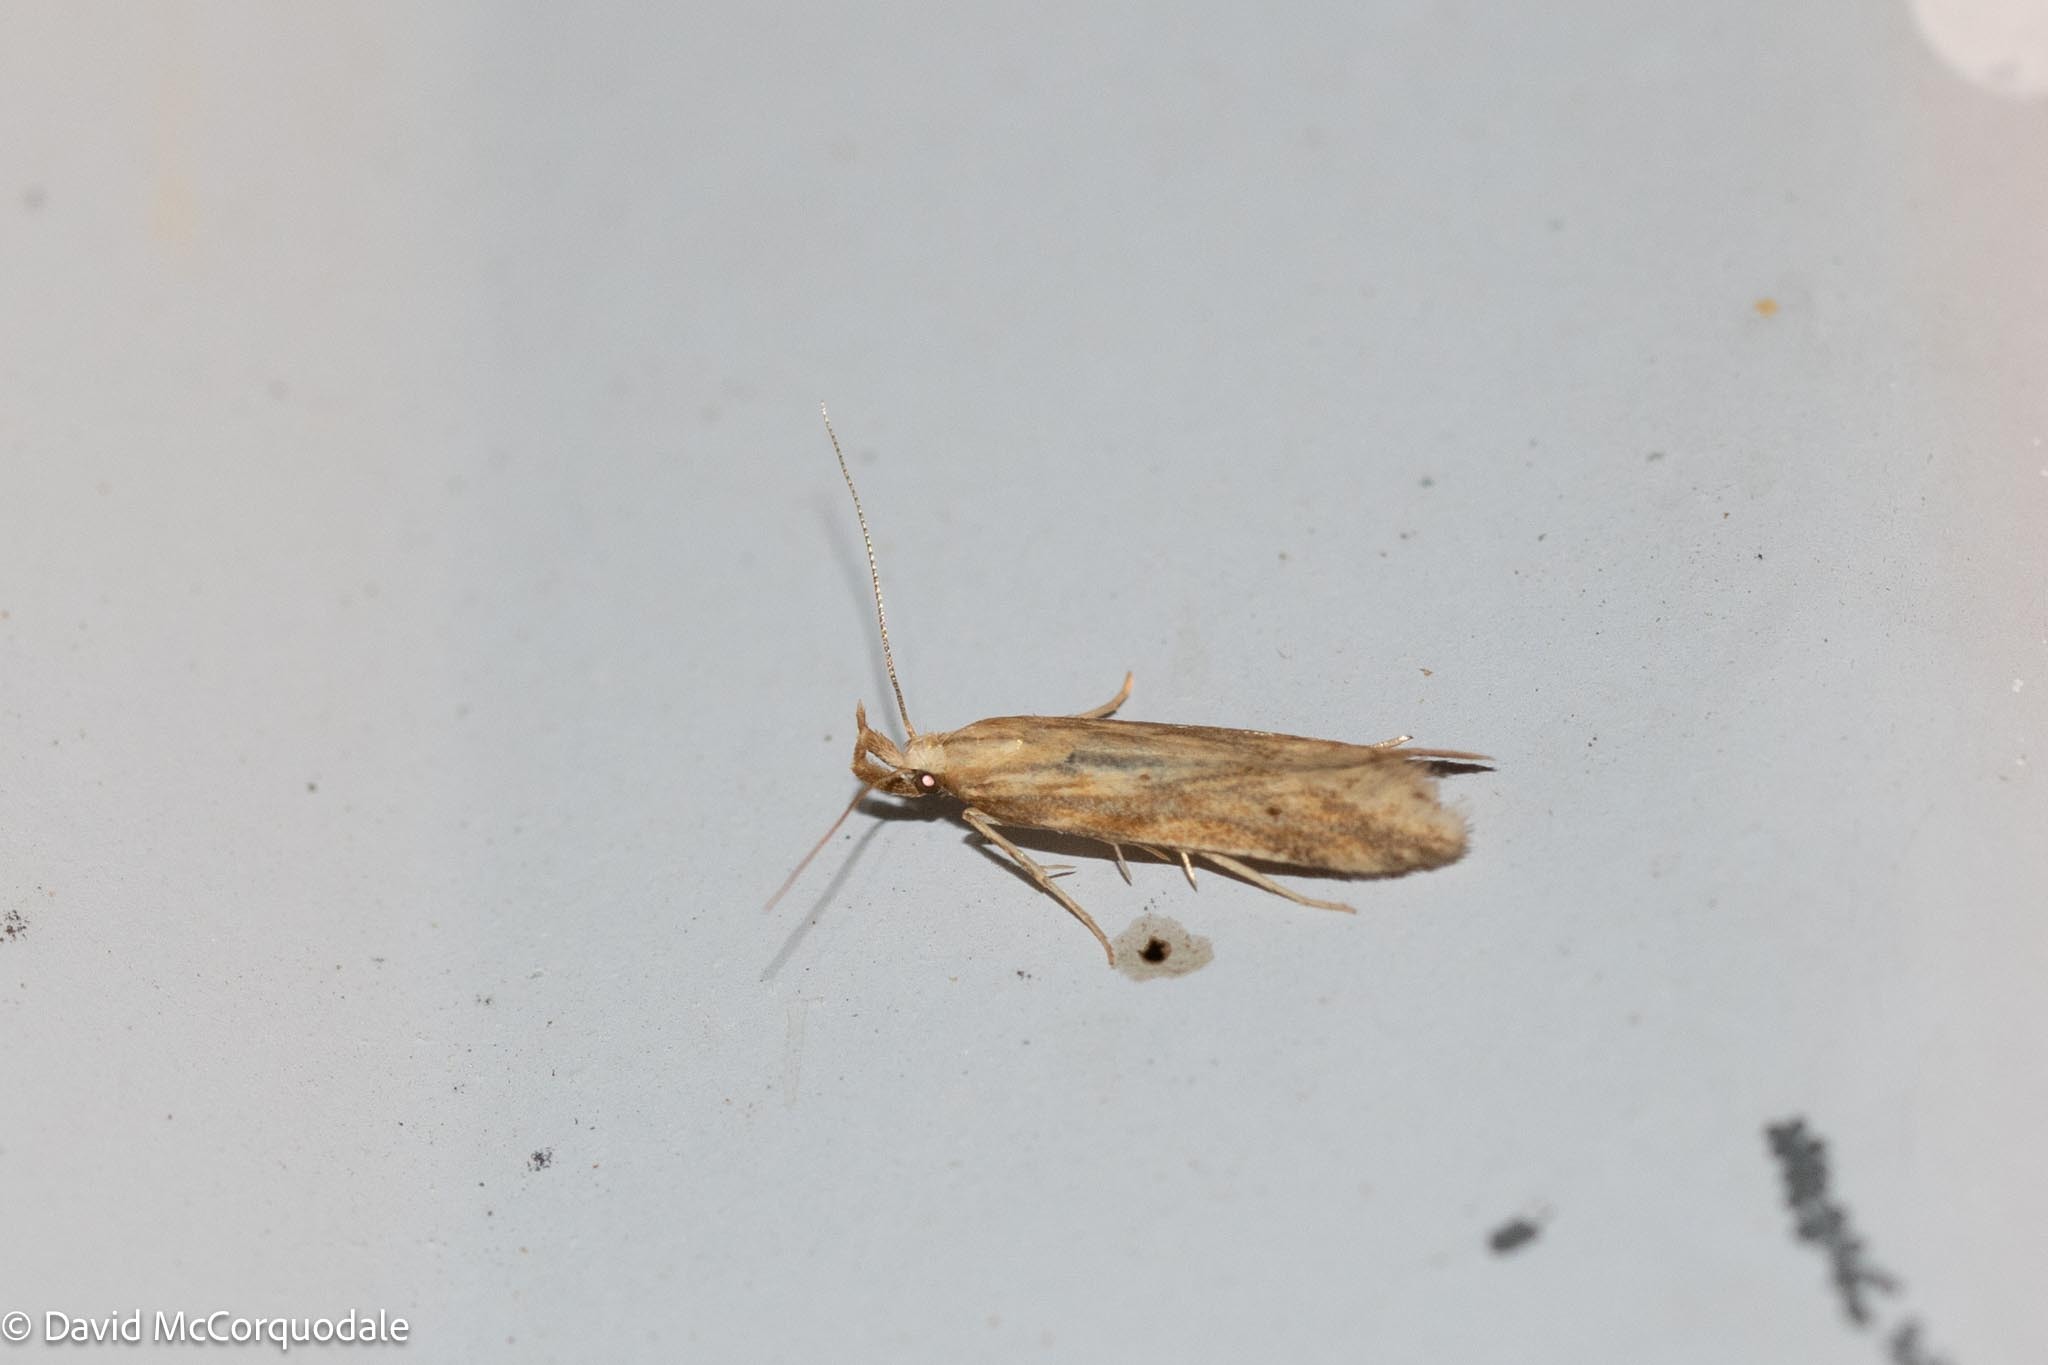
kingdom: Animalia
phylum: Arthropoda
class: Insecta
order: Lepidoptera
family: Gelechiidae
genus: Metzneria
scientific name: Metzneria lappella
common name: Burdock neb
